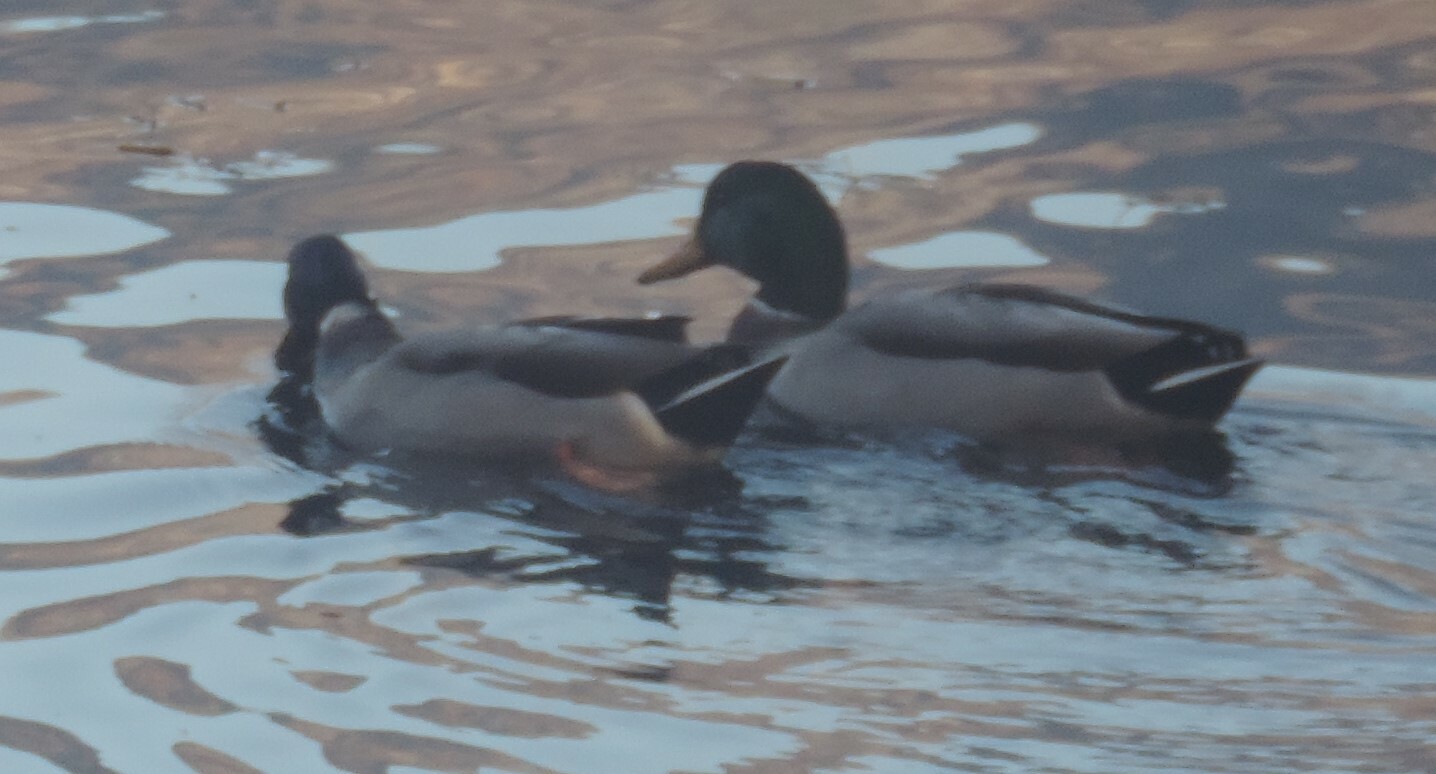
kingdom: Animalia
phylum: Chordata
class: Aves
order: Anseriformes
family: Anatidae
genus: Anas
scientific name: Anas platyrhynchos
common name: Mallard
